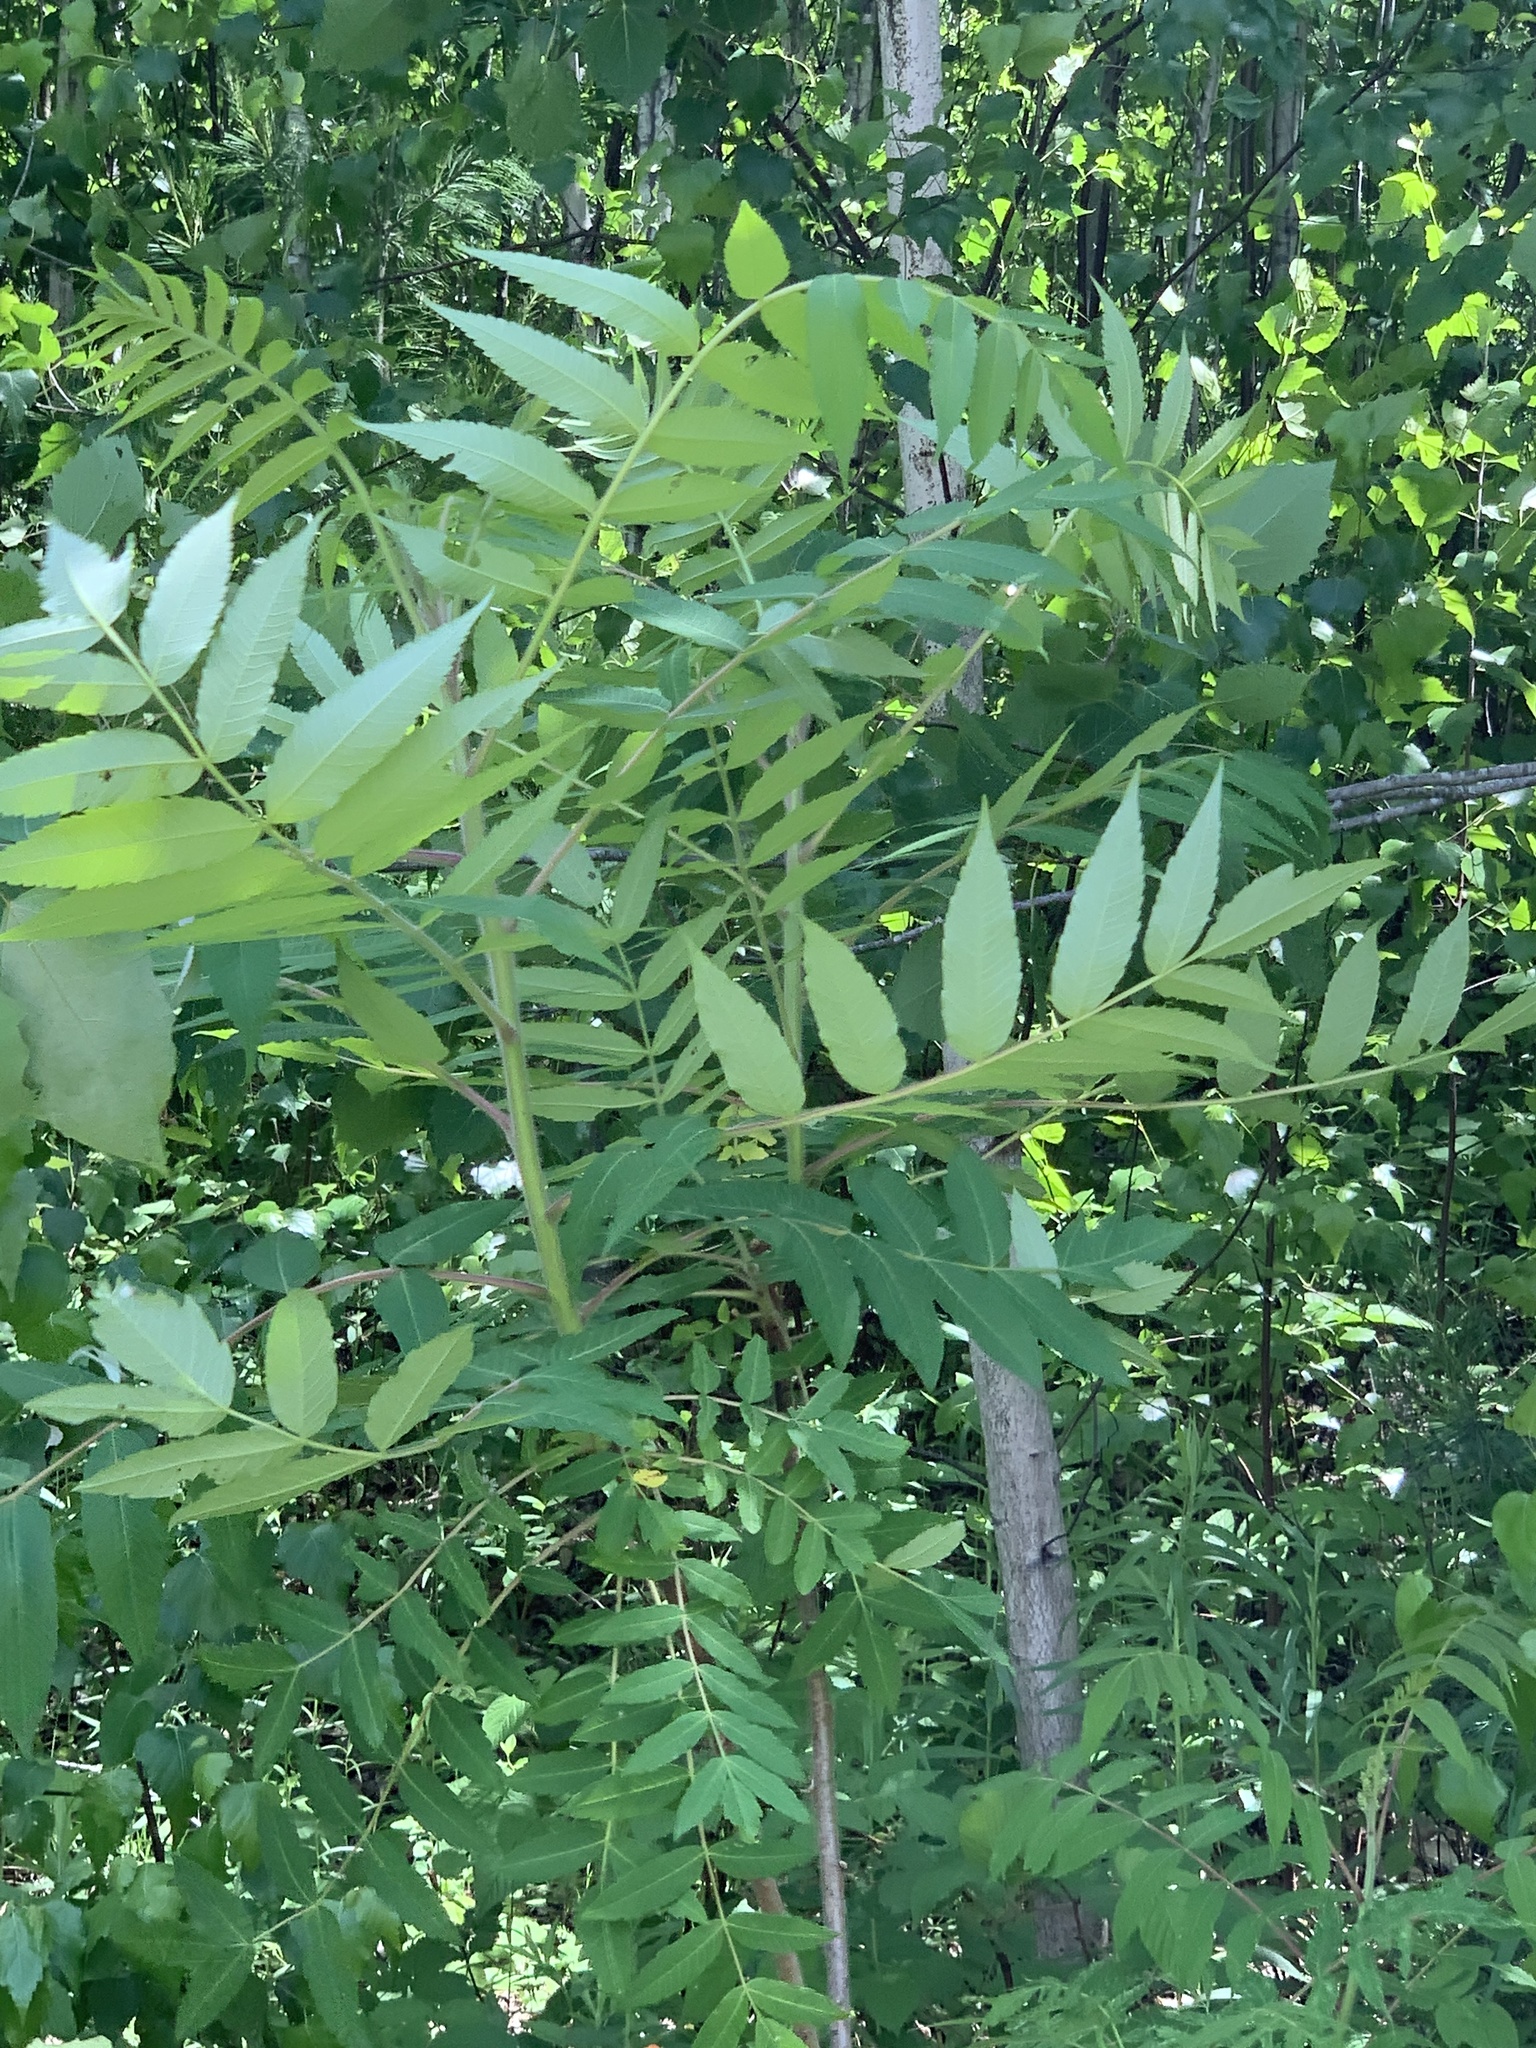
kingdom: Plantae
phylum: Tracheophyta
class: Magnoliopsida
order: Sapindales
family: Anacardiaceae
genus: Rhus
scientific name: Rhus typhina
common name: Staghorn sumac
